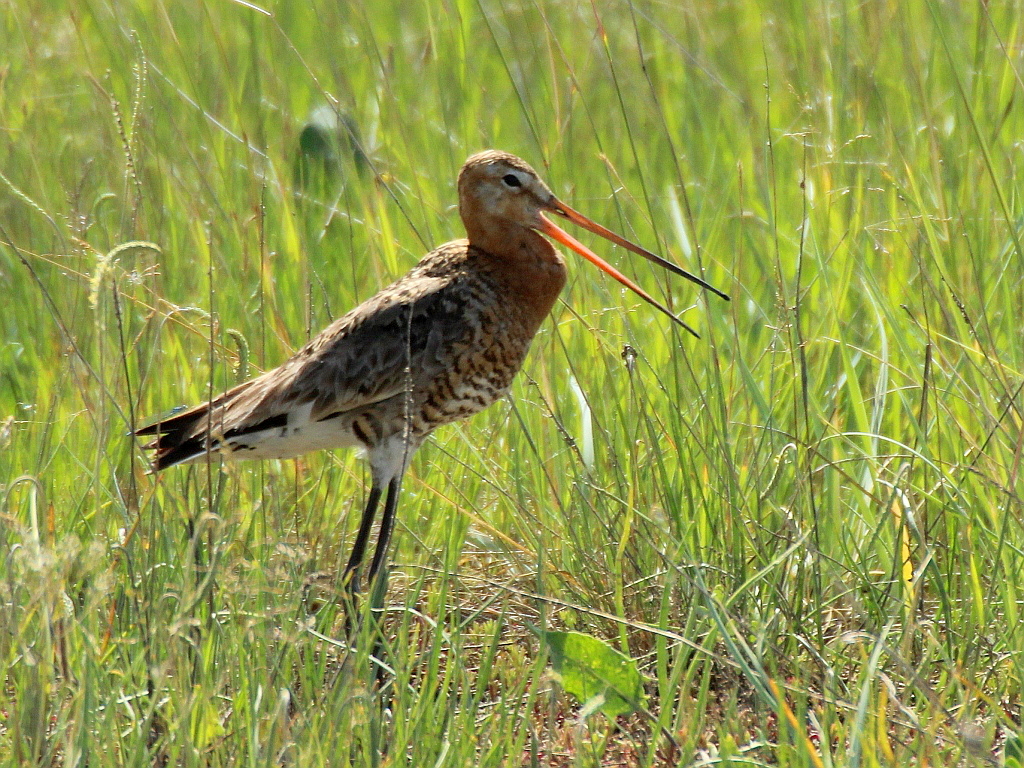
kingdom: Animalia
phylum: Chordata
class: Aves
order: Charadriiformes
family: Scolopacidae
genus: Limosa
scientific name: Limosa limosa
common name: Black-tailed godwit
